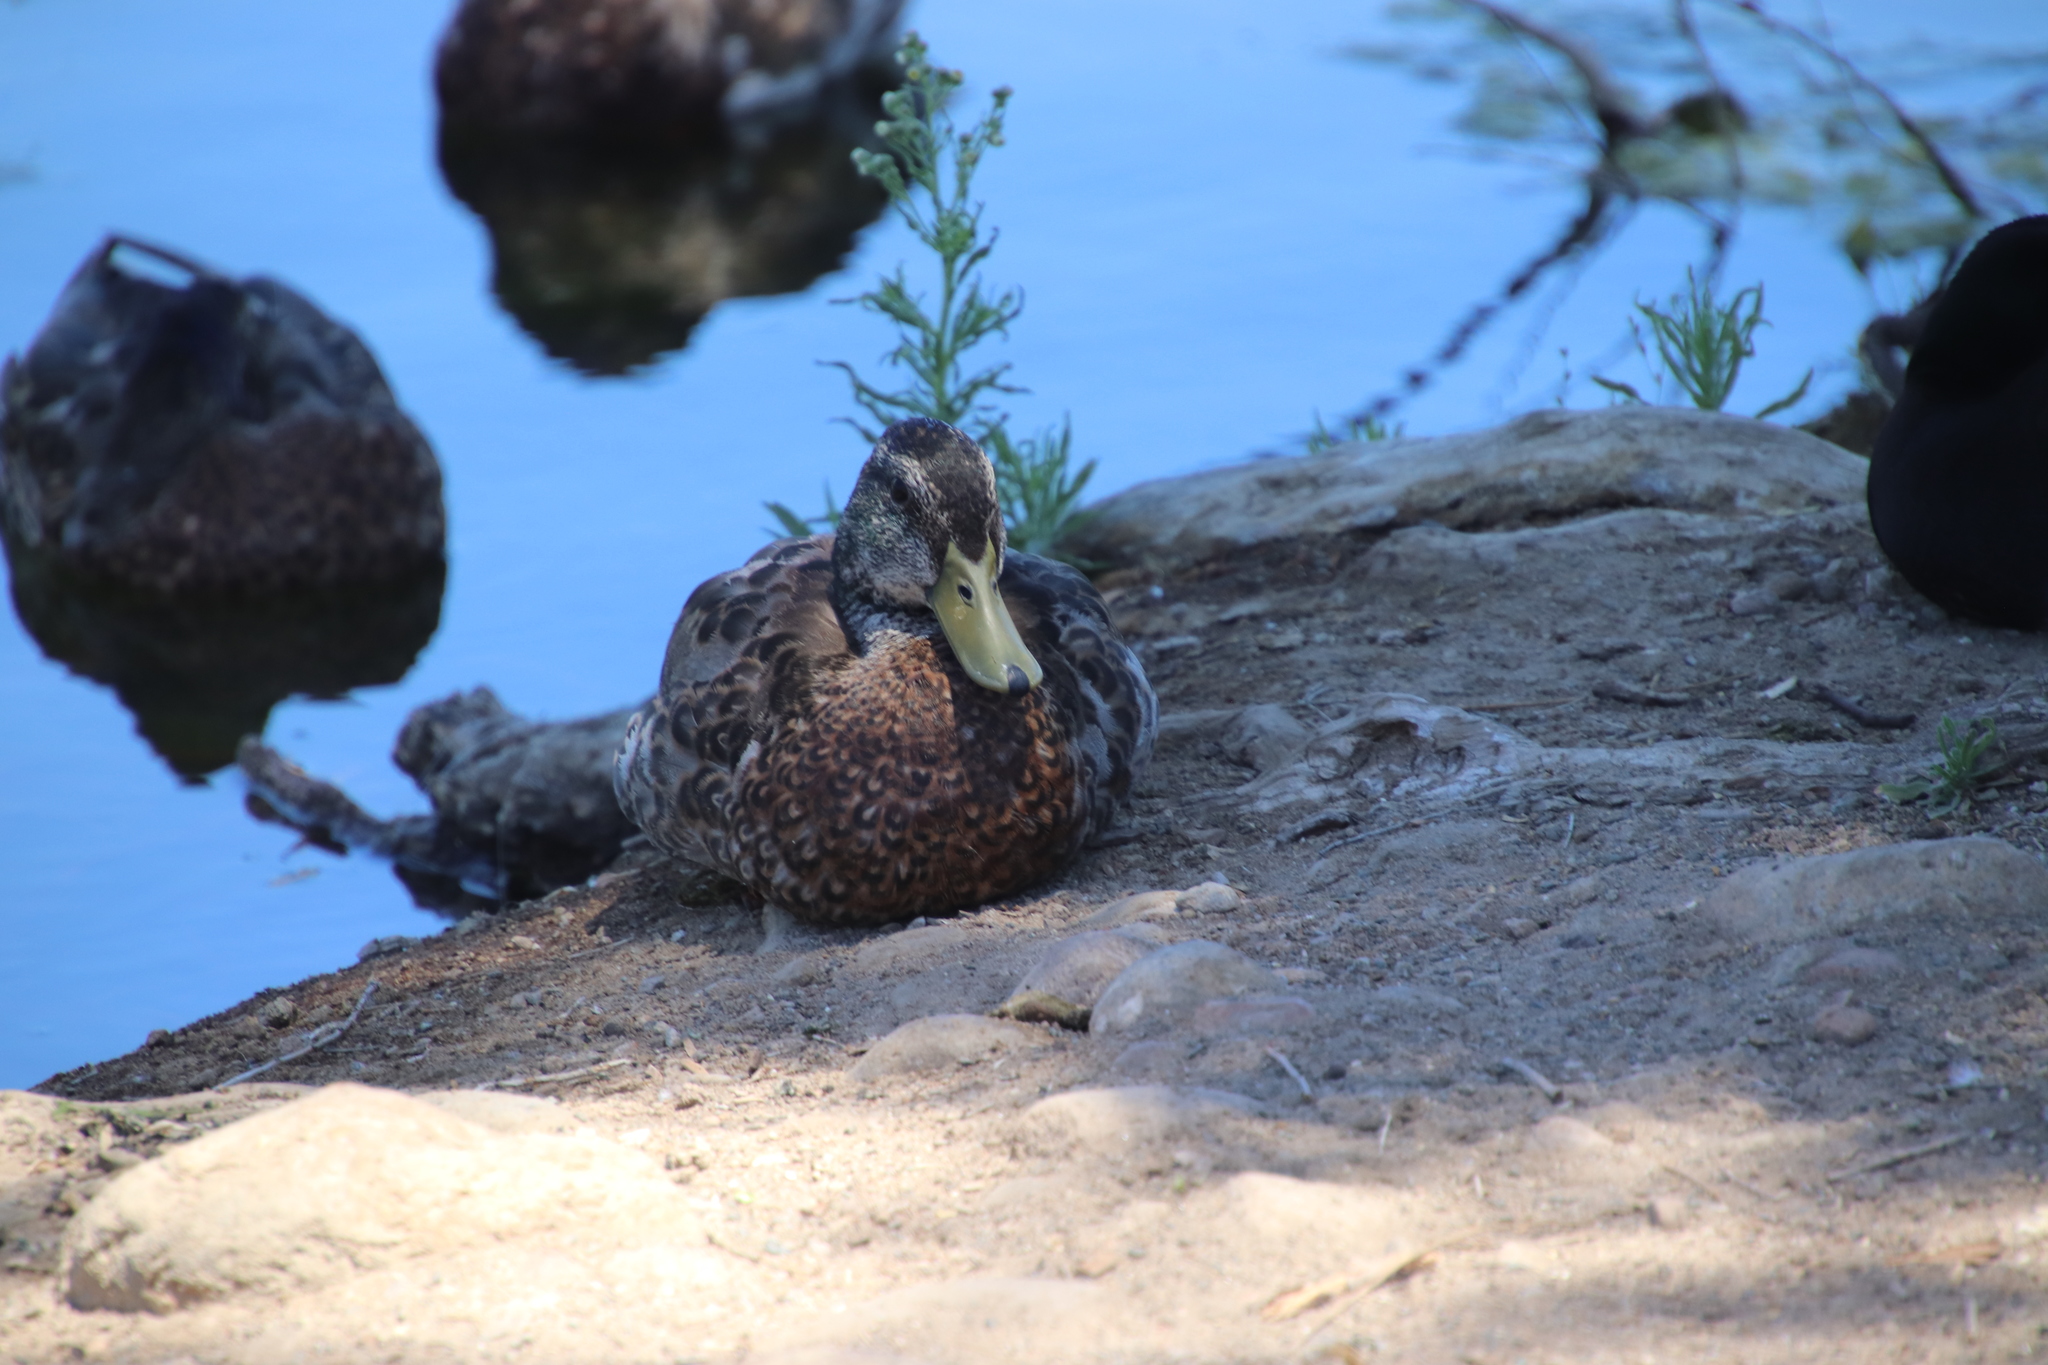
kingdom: Animalia
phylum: Chordata
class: Aves
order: Anseriformes
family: Anatidae
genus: Anas
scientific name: Anas platyrhynchos
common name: Mallard
